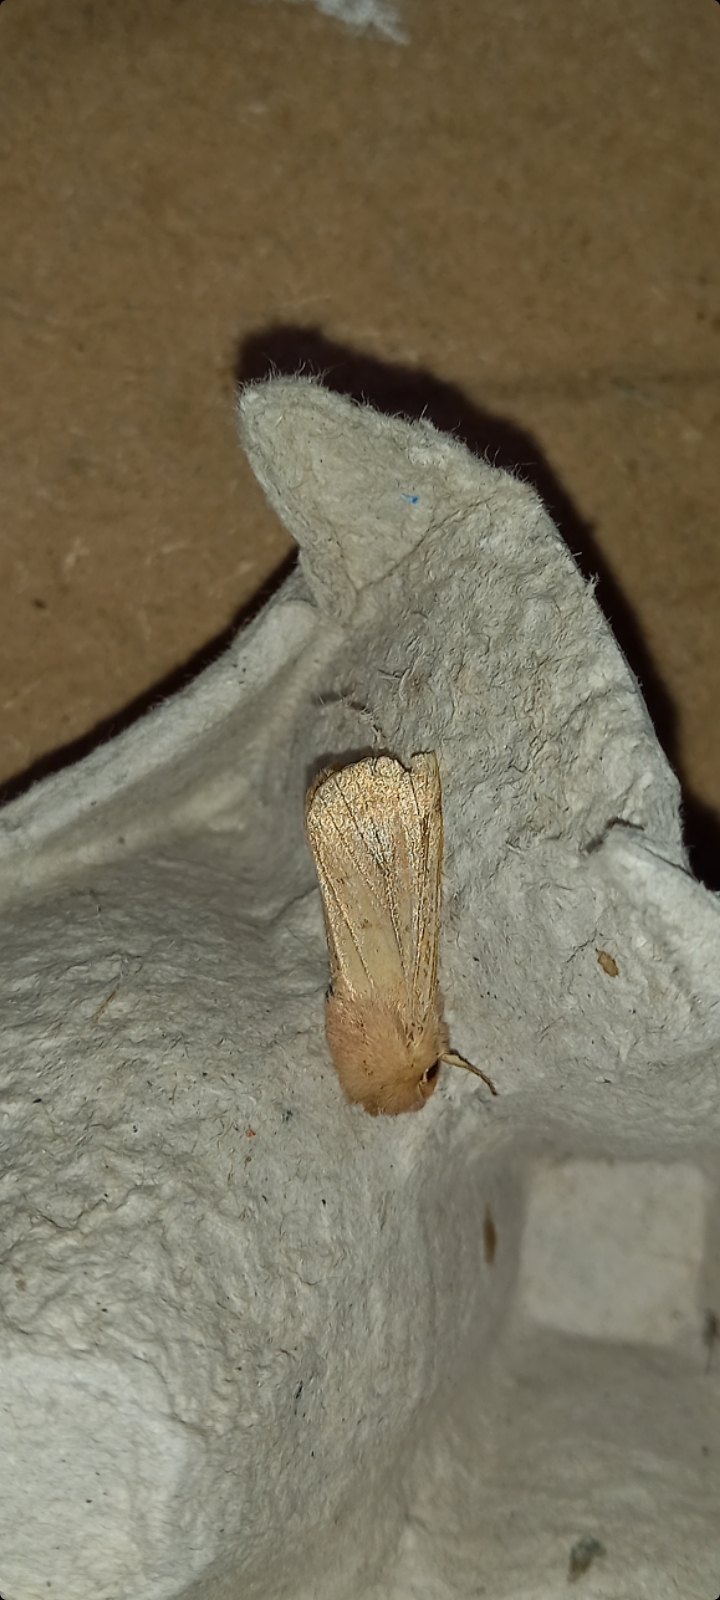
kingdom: Animalia
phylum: Arthropoda
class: Insecta
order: Lepidoptera
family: Noctuidae
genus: Mythimna
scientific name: Mythimna pallens
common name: Common wainscot
